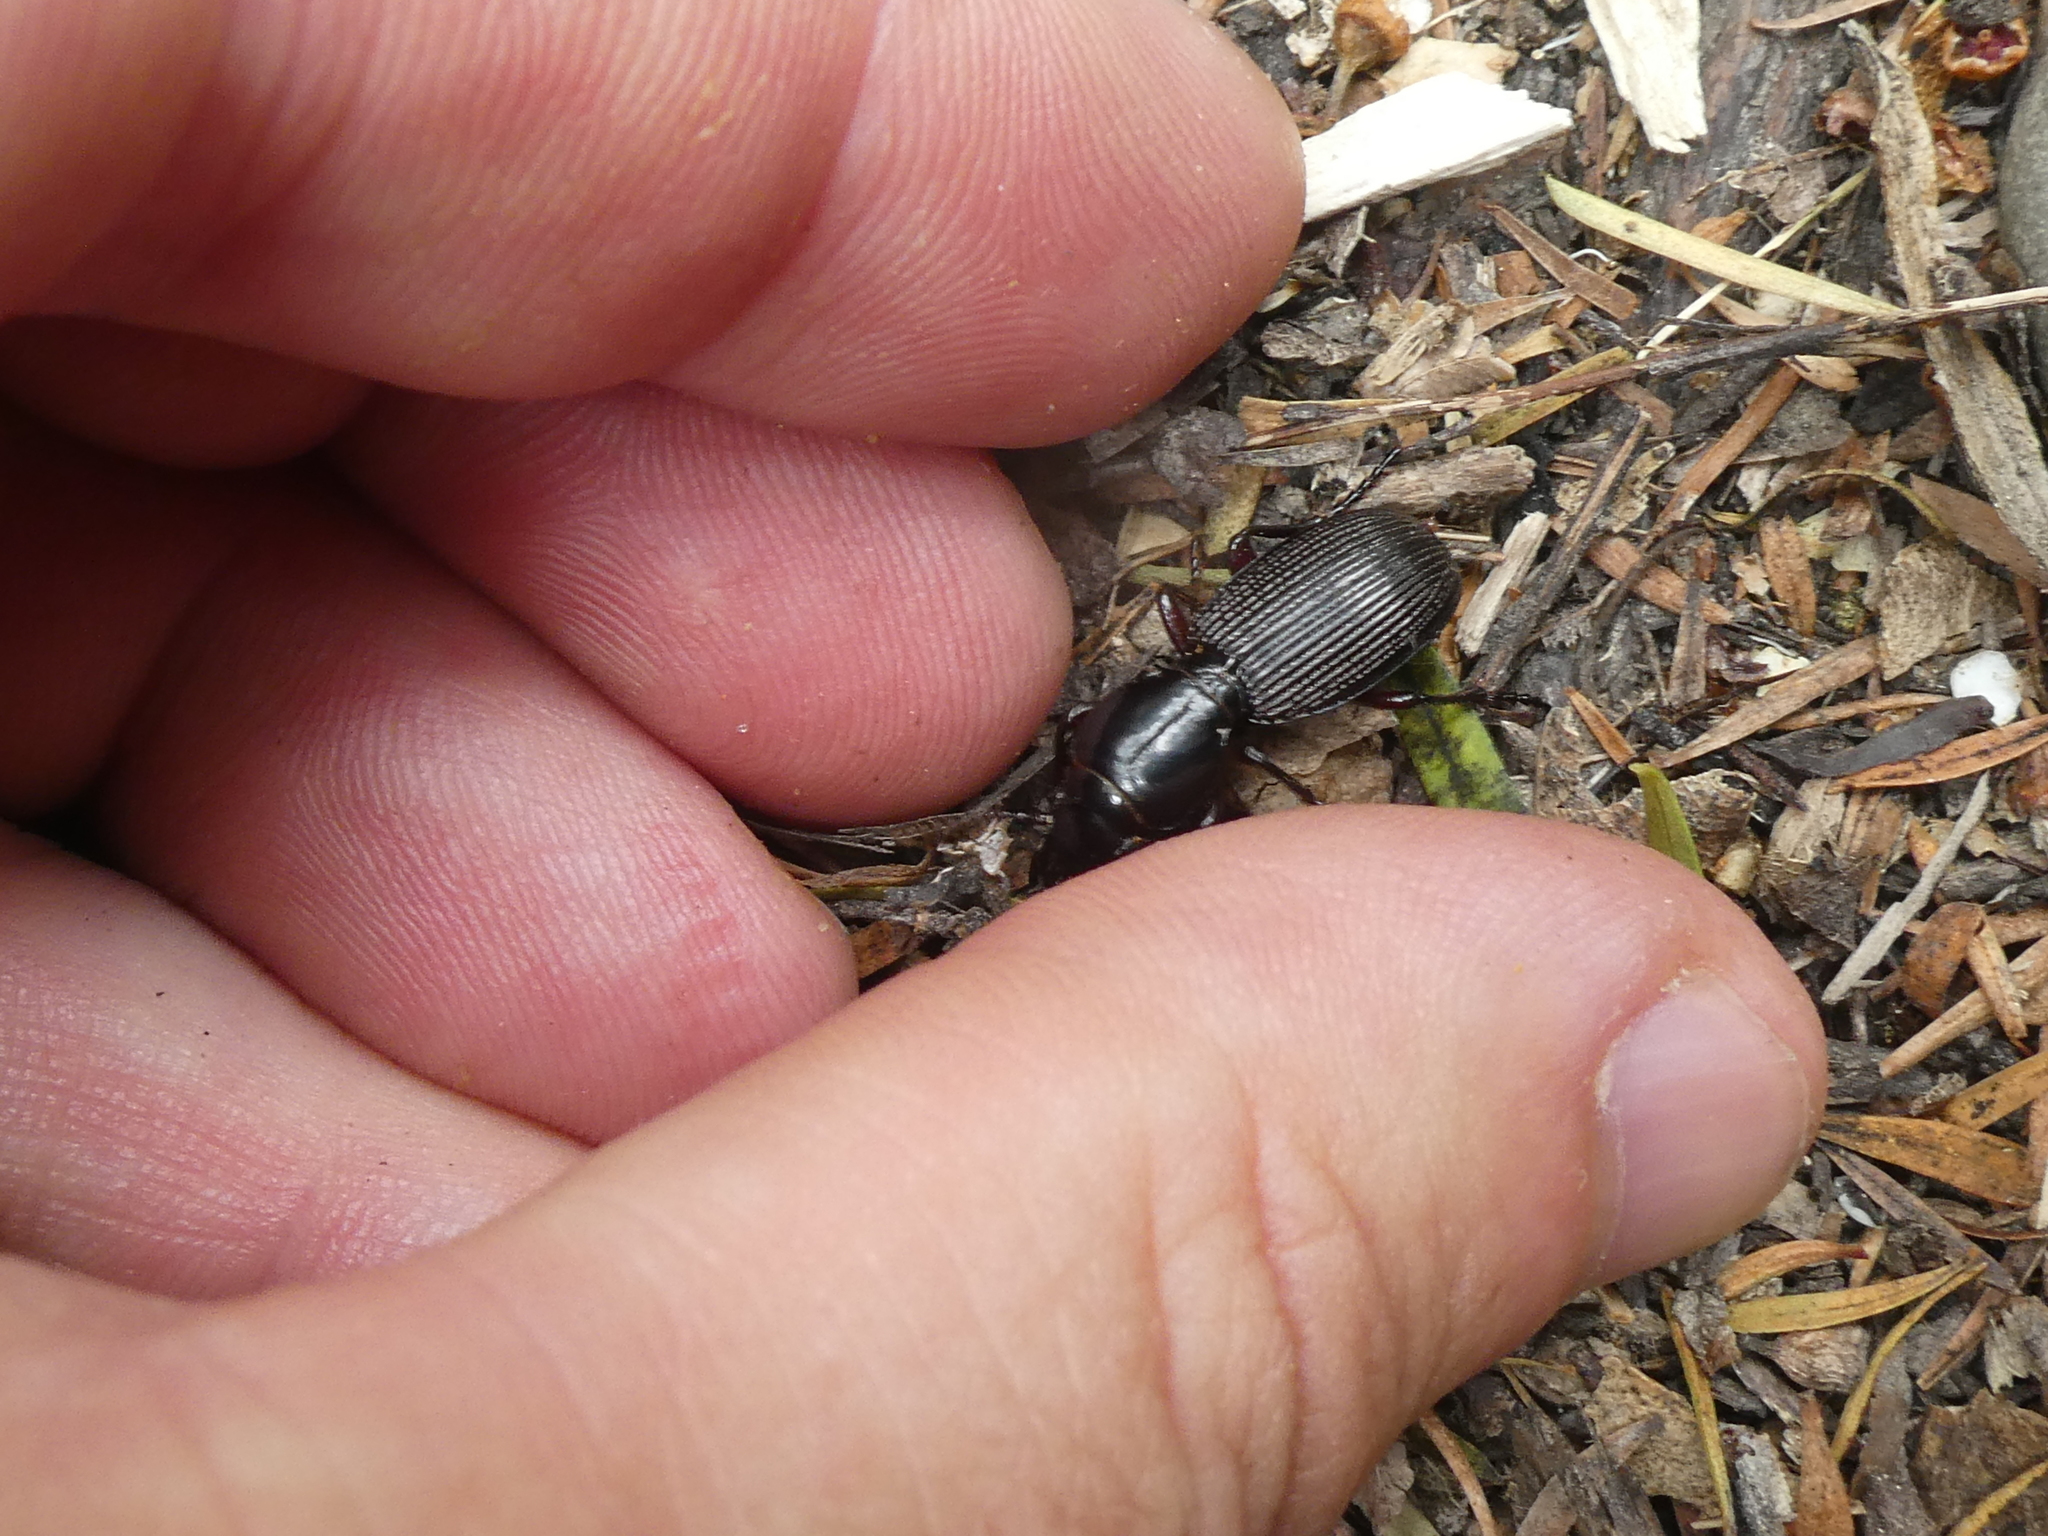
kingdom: Animalia
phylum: Arthropoda
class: Insecta
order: Coleoptera
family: Carabidae
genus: Mecodema
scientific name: Mecodema oblongum
